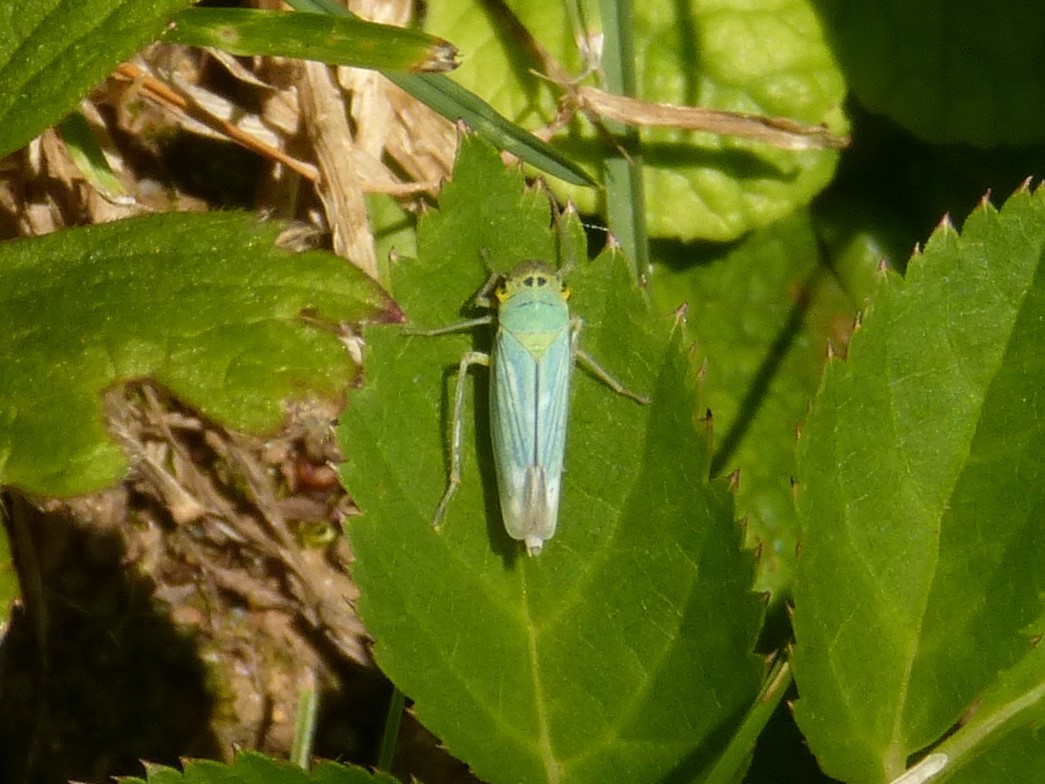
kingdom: Animalia
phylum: Arthropoda
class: Insecta
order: Hemiptera
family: Cicadellidae
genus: Cicadella
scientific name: Cicadella viridis
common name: Leafhopper
